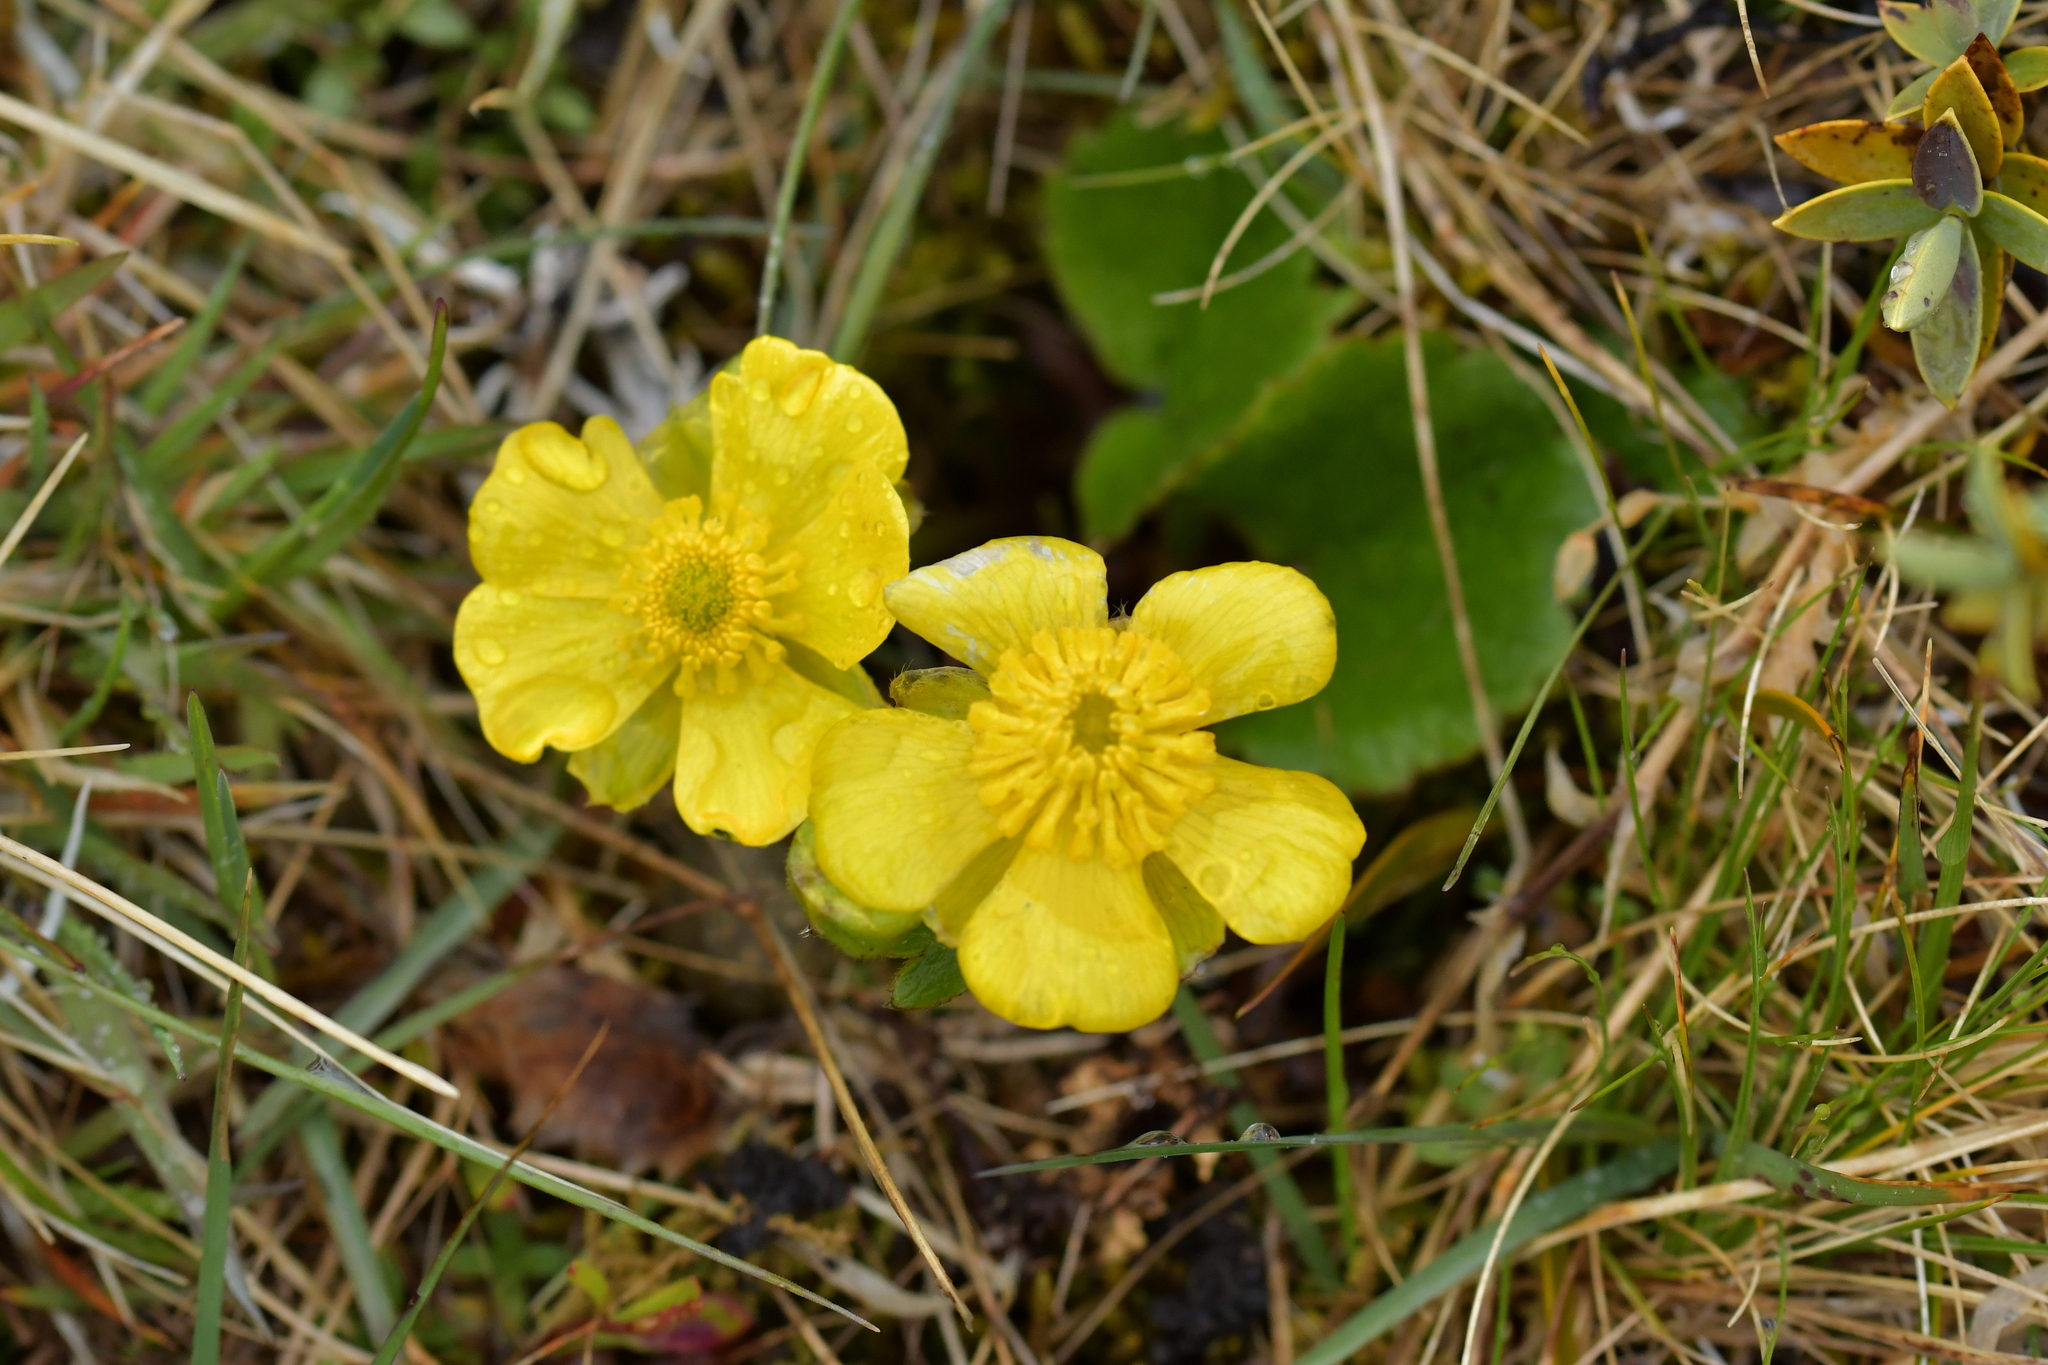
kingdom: Plantae
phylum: Tracheophyta
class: Magnoliopsida
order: Ranunculales
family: Ranunculaceae
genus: Ranunculus
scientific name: Ranunculus insignis
